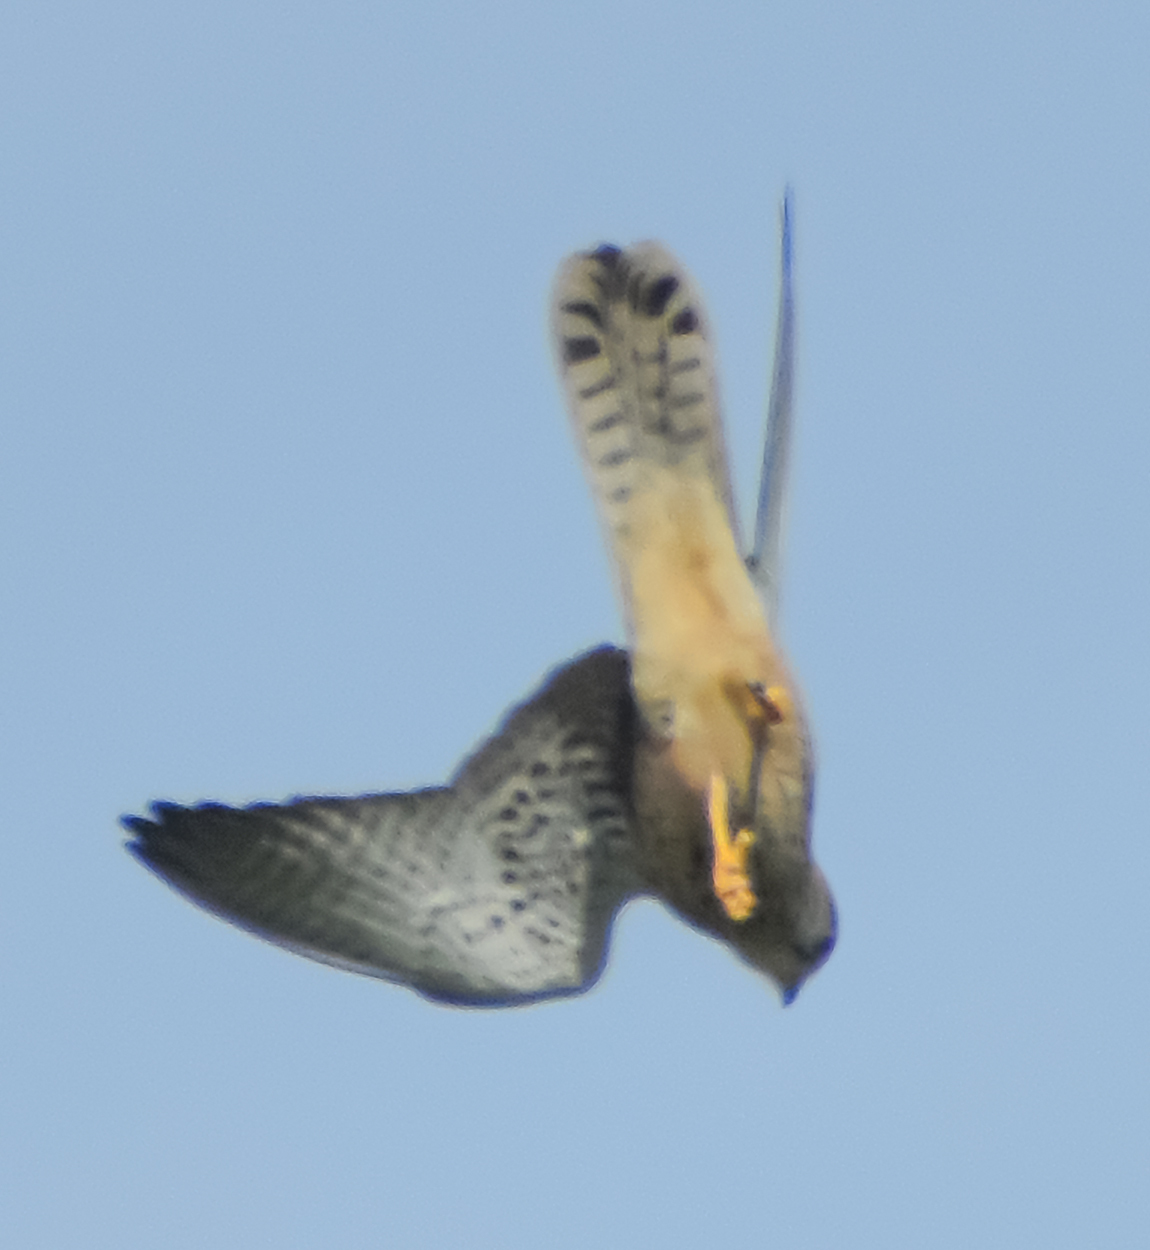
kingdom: Animalia
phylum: Chordata
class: Aves
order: Falconiformes
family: Falconidae
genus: Falco
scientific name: Falco tinnunculus
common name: Common kestrel
